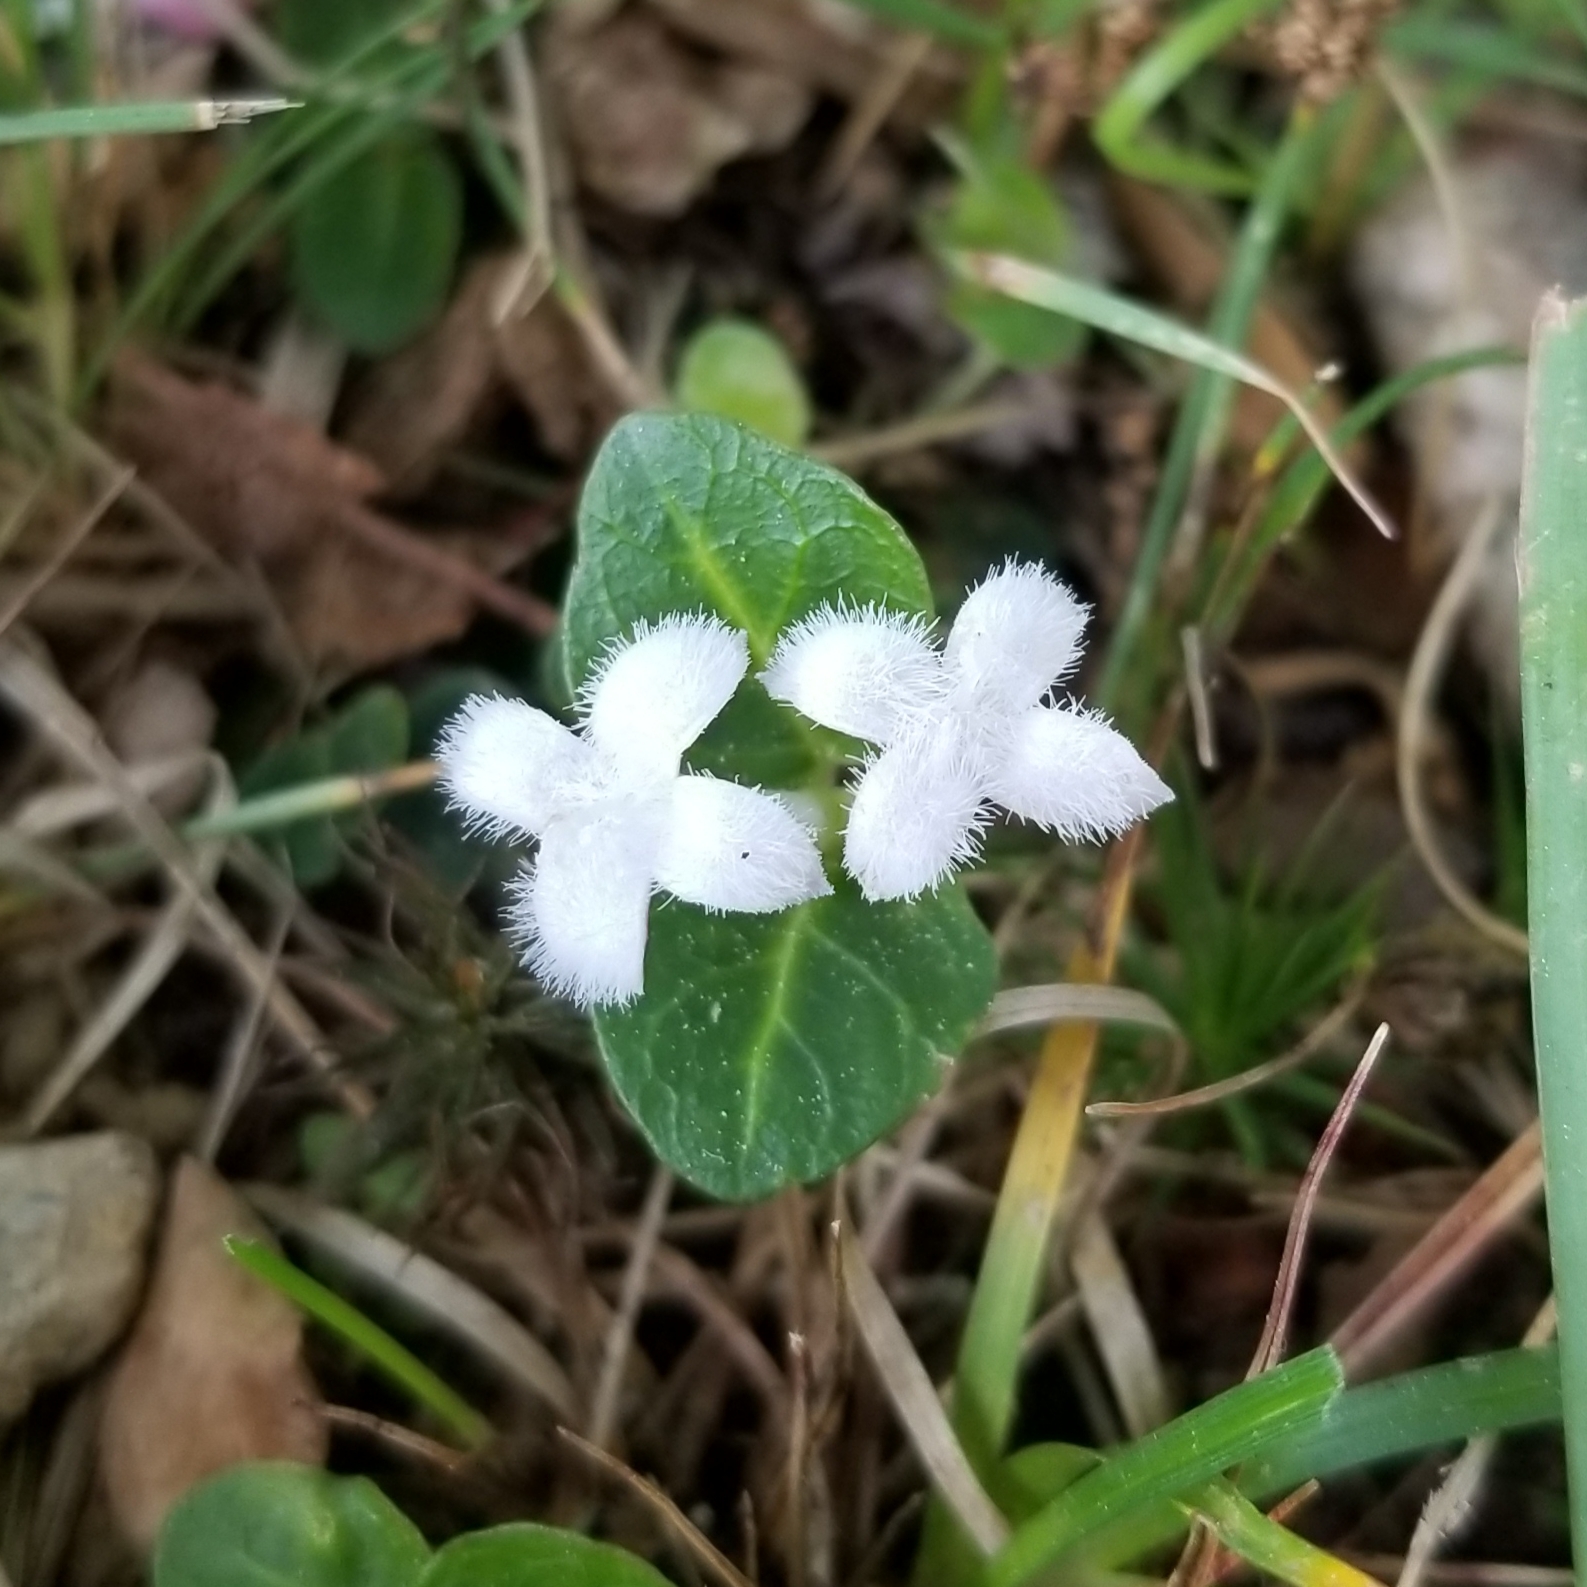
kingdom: Plantae
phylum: Tracheophyta
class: Magnoliopsida
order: Gentianales
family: Rubiaceae
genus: Mitchella
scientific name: Mitchella repens
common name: Partridge-berry
